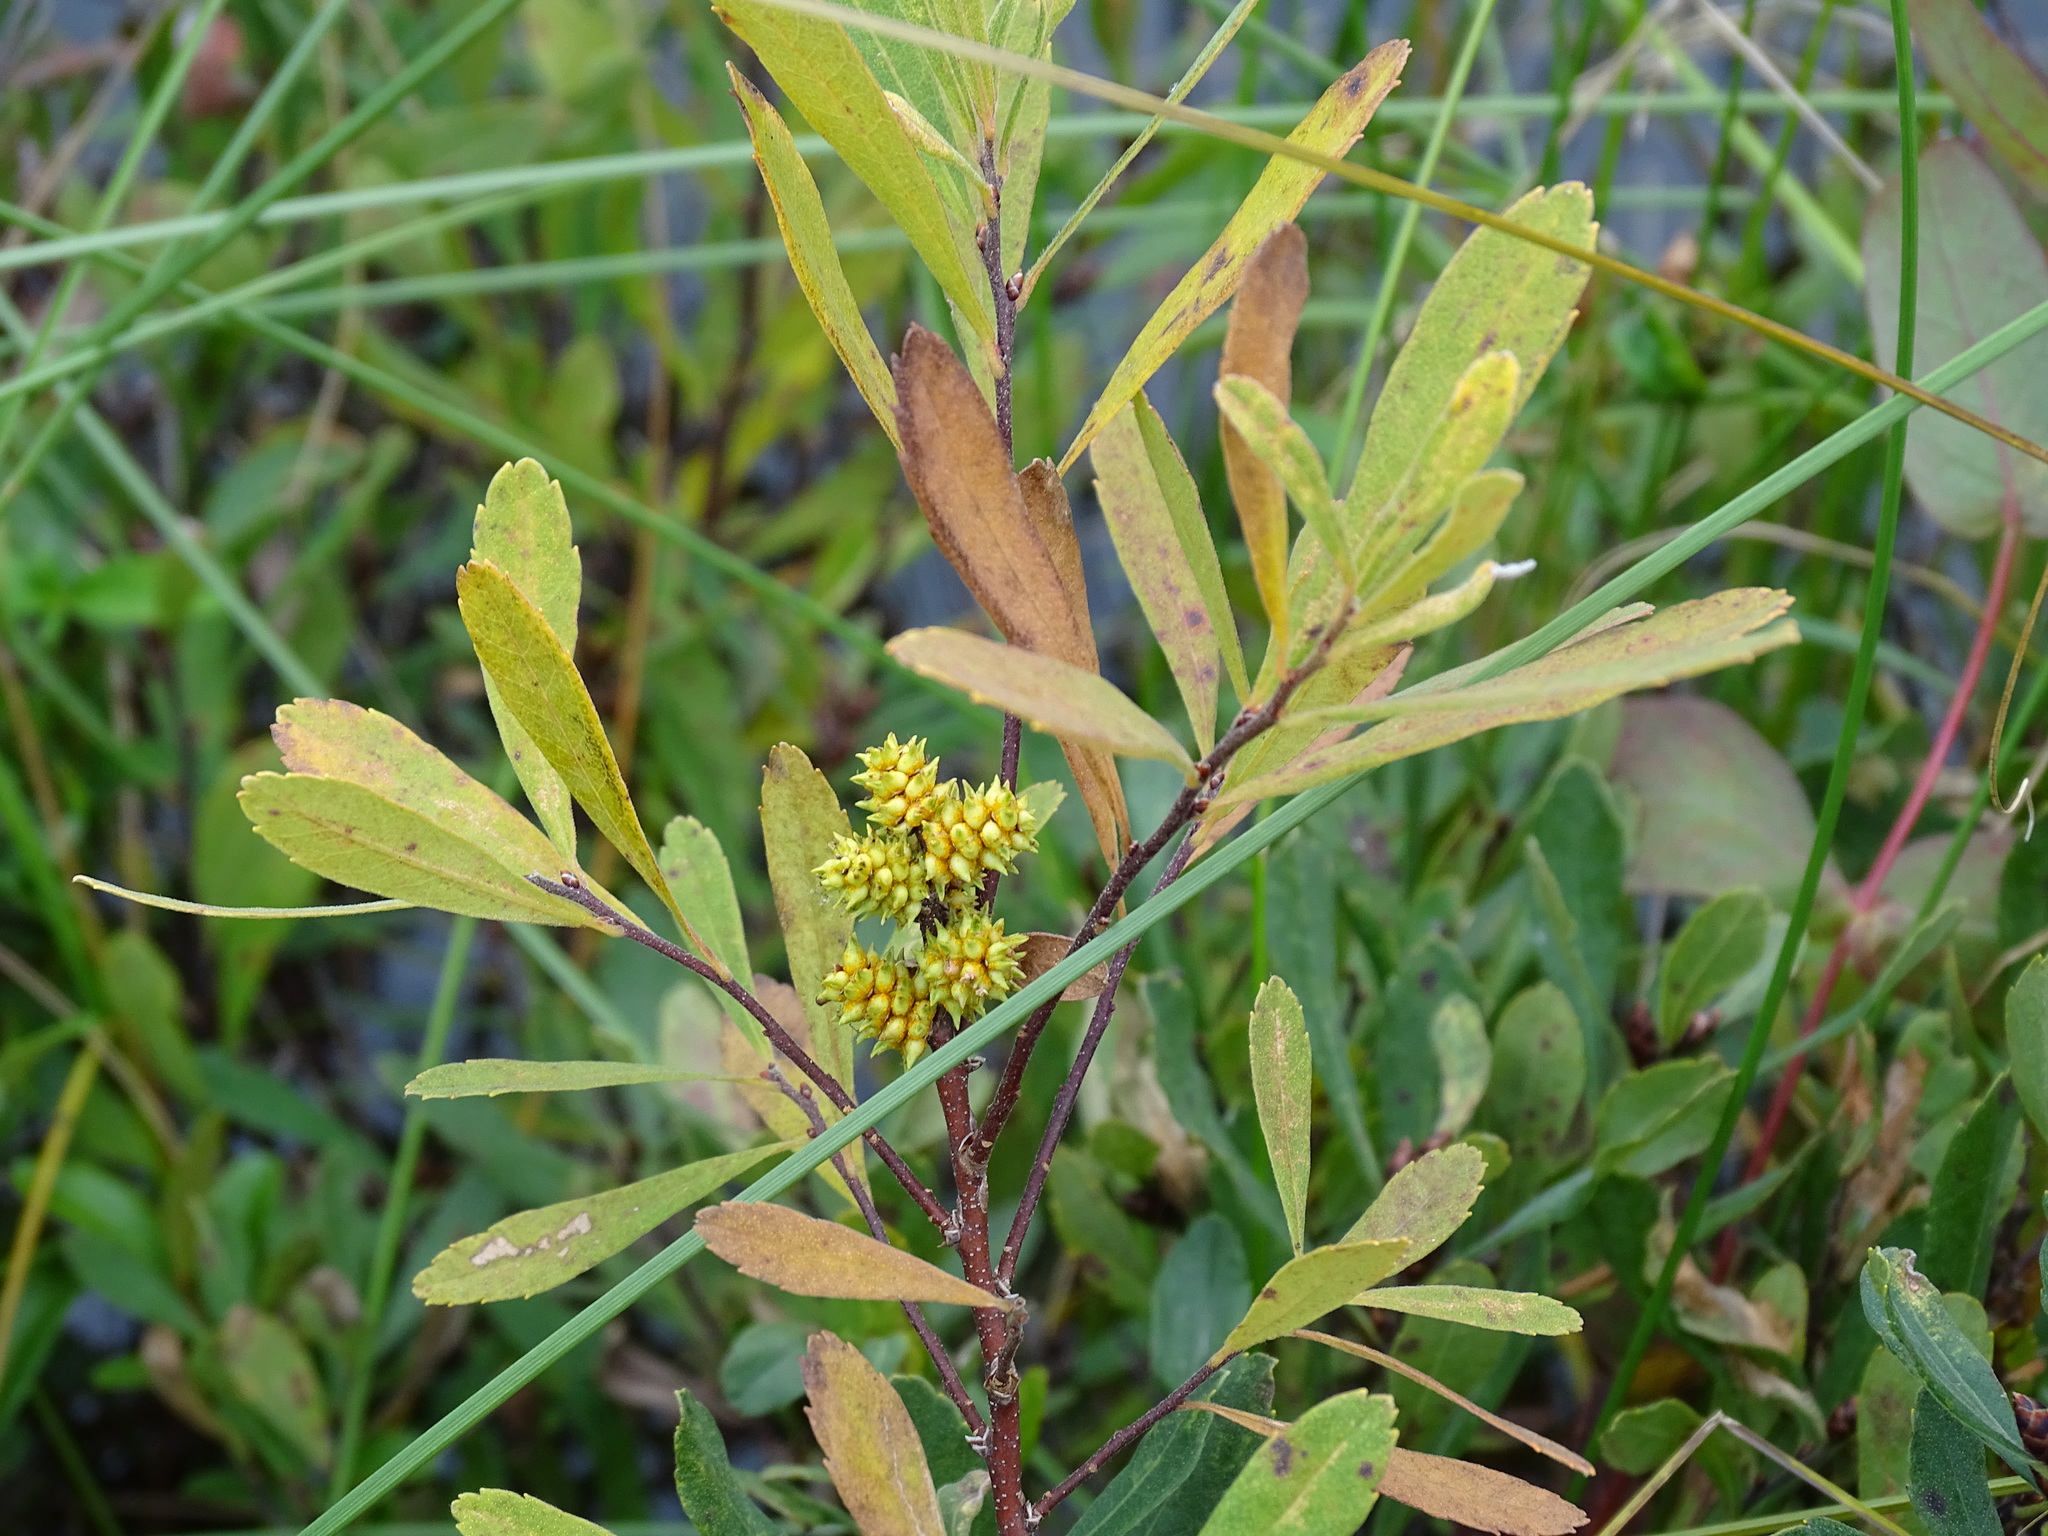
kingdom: Plantae
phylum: Tracheophyta
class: Magnoliopsida
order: Fagales
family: Myricaceae
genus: Myrica
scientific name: Myrica gale
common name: Sweet gale
